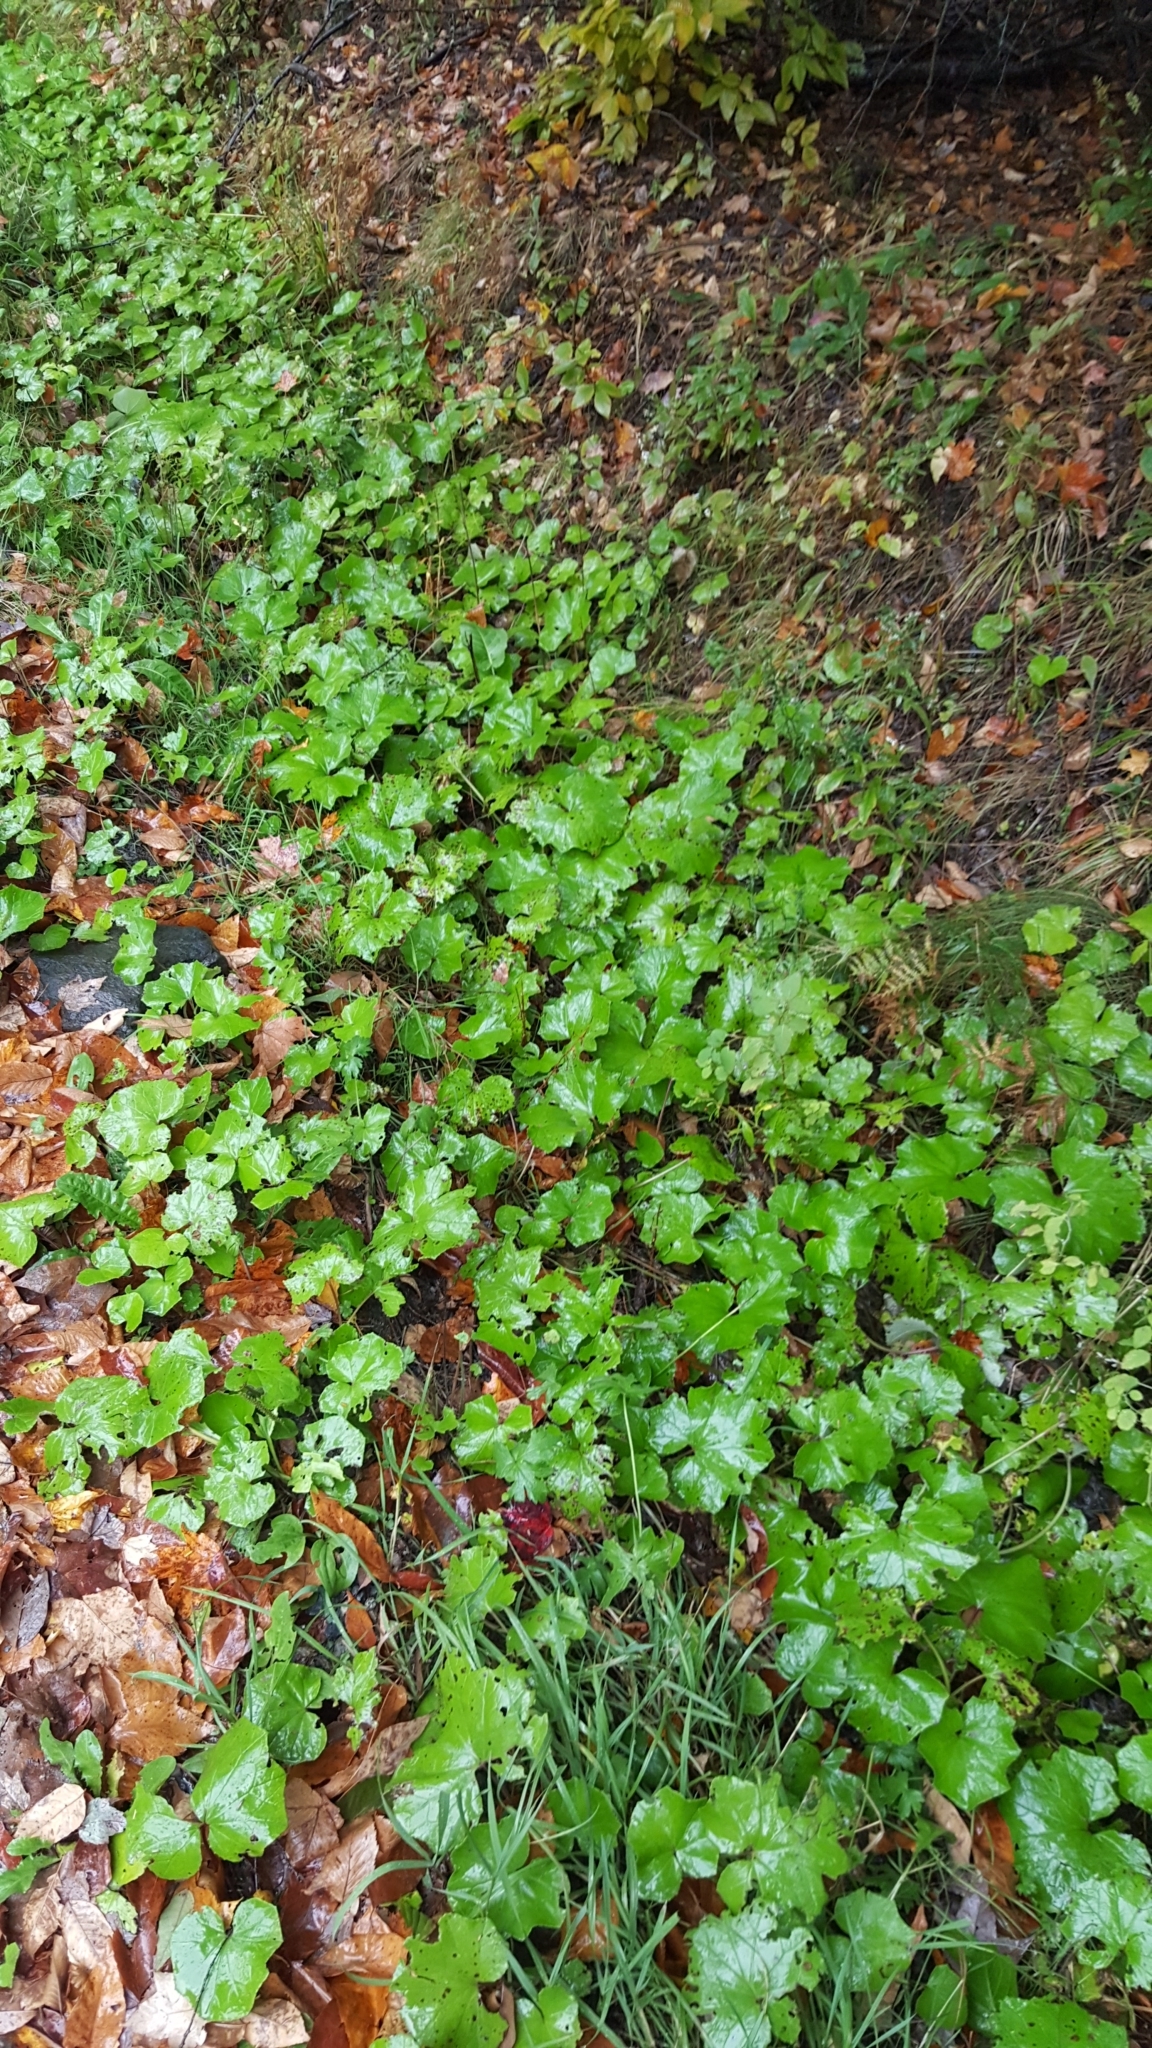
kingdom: Plantae
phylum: Tracheophyta
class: Magnoliopsida
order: Asterales
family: Asteraceae
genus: Tussilago
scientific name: Tussilago farfara
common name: Coltsfoot
